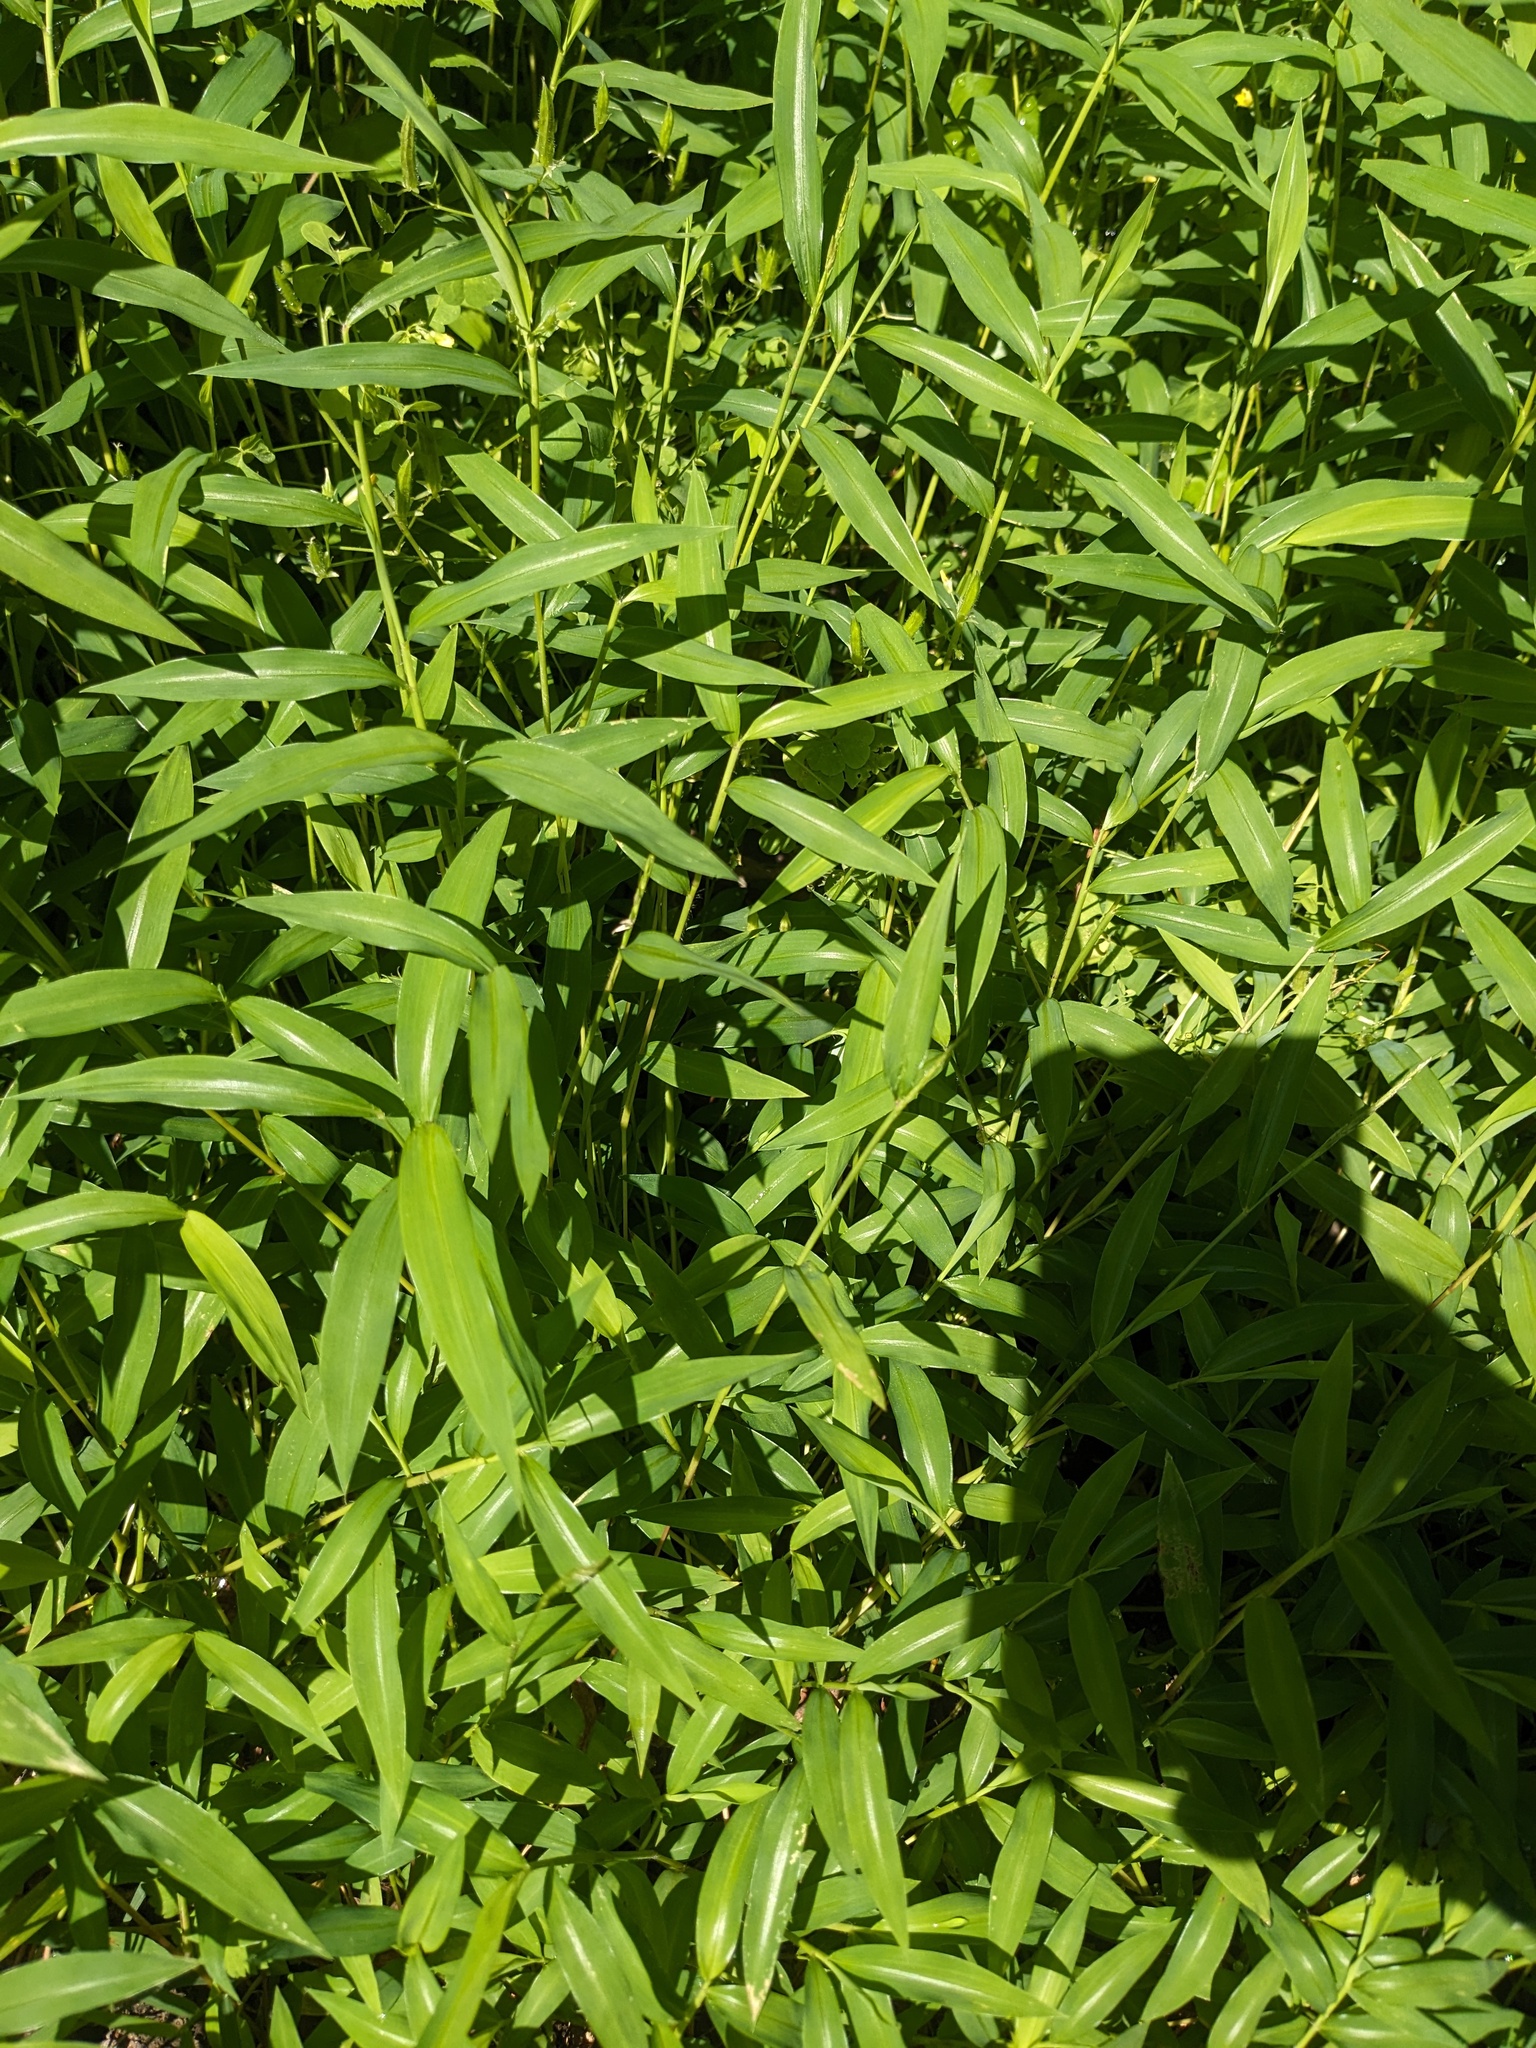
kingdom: Plantae
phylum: Tracheophyta
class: Liliopsida
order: Poales
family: Poaceae
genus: Microstegium
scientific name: Microstegium vimineum
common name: Japanese stiltgrass
